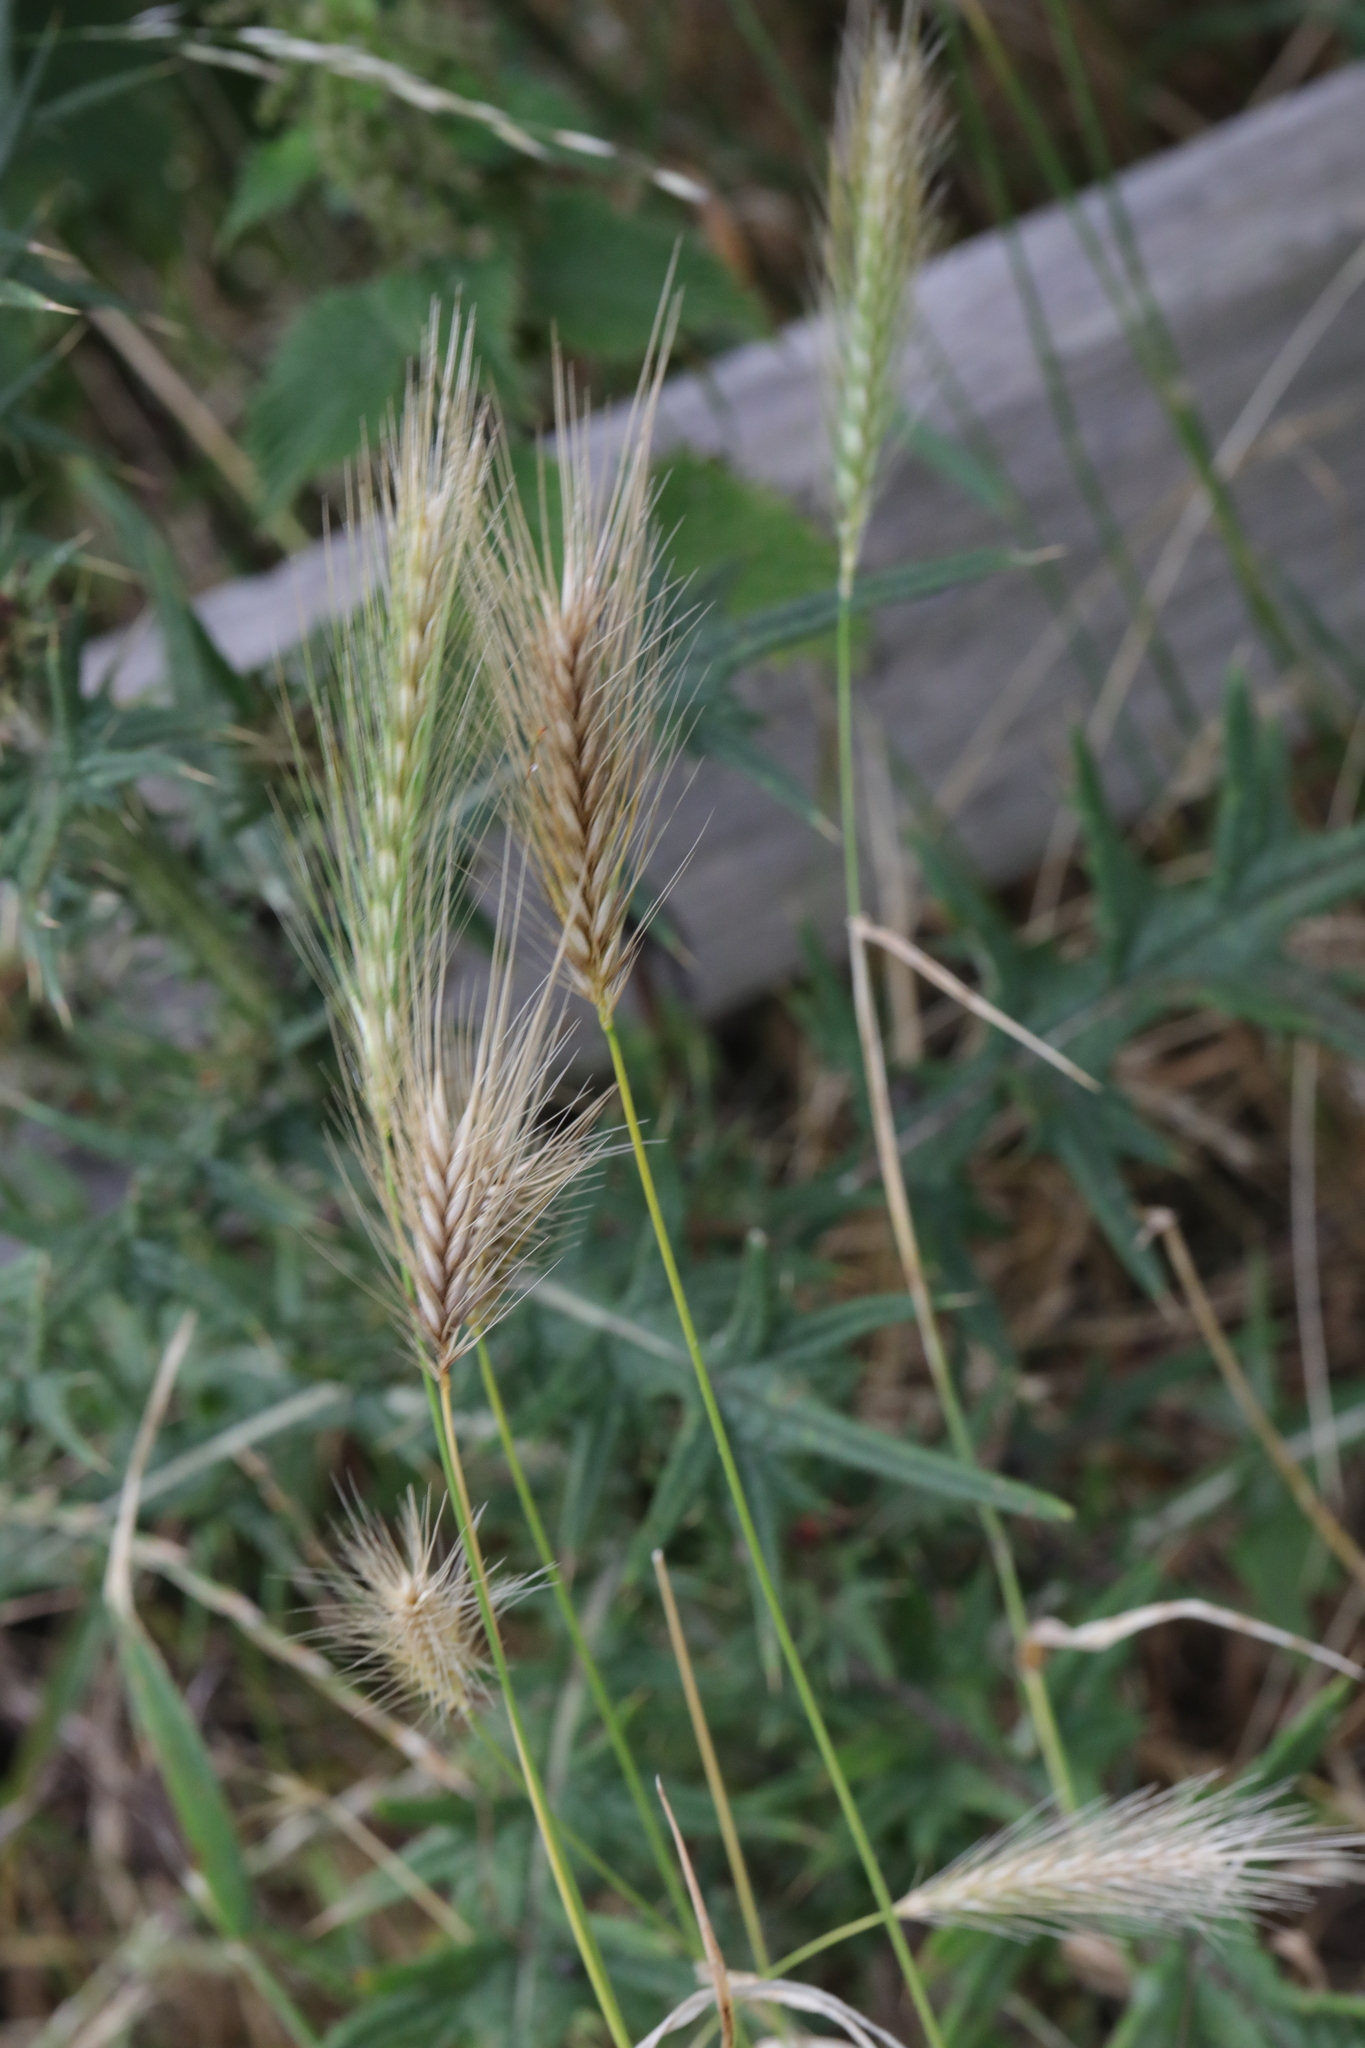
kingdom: Plantae
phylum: Tracheophyta
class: Liliopsida
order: Poales
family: Poaceae
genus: Hordeum
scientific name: Hordeum murinum
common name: Wall barley
